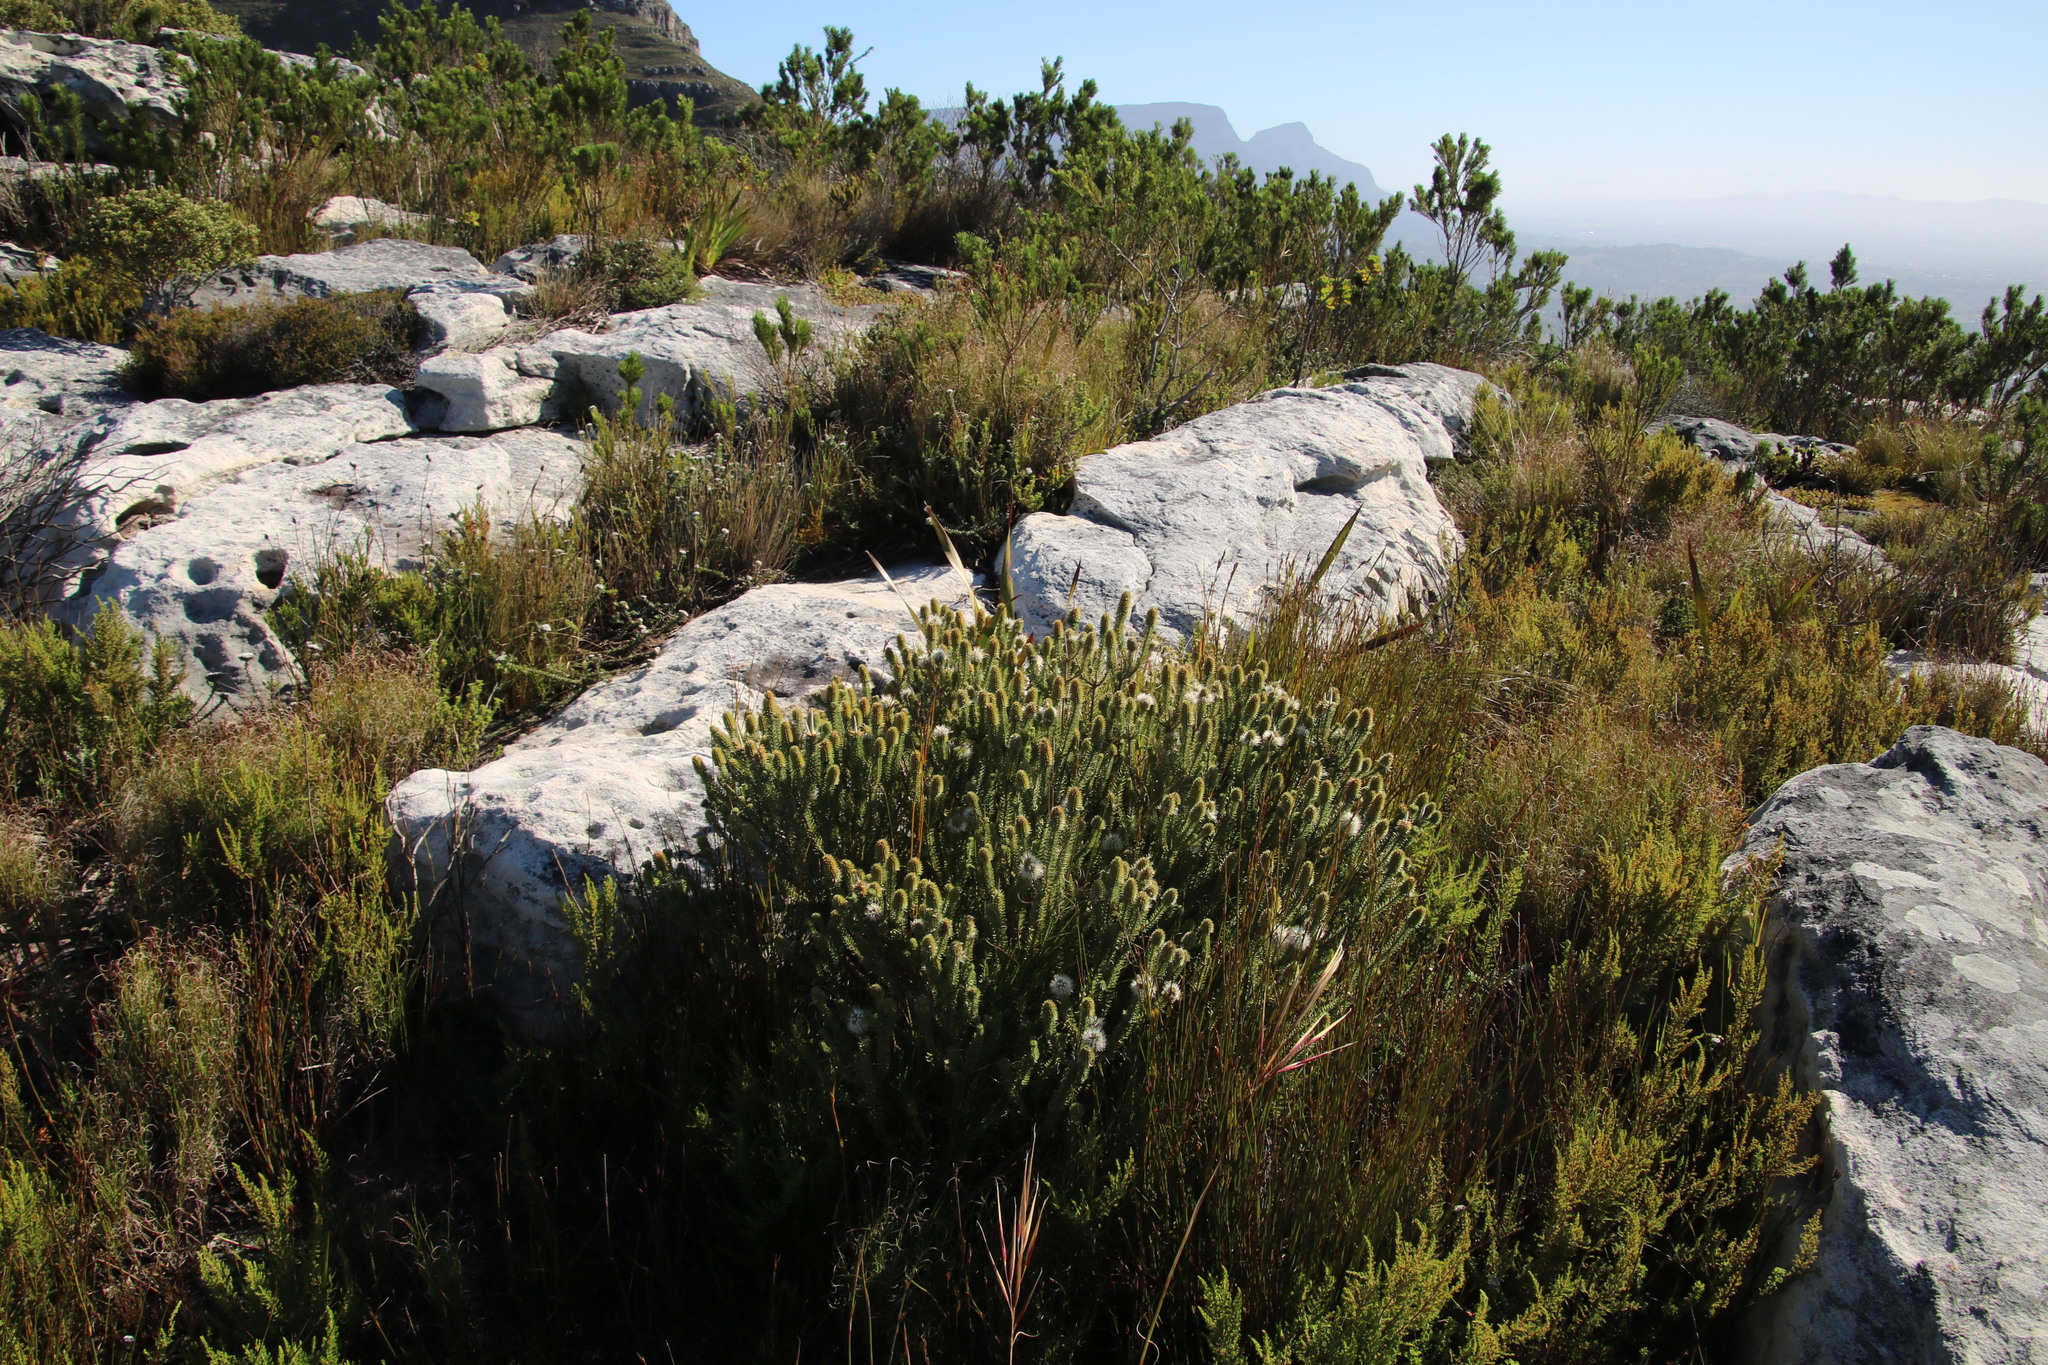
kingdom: Plantae
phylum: Tracheophyta
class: Magnoliopsida
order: Lamiales
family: Stilbaceae
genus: Stilbe
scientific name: Stilbe vestita
